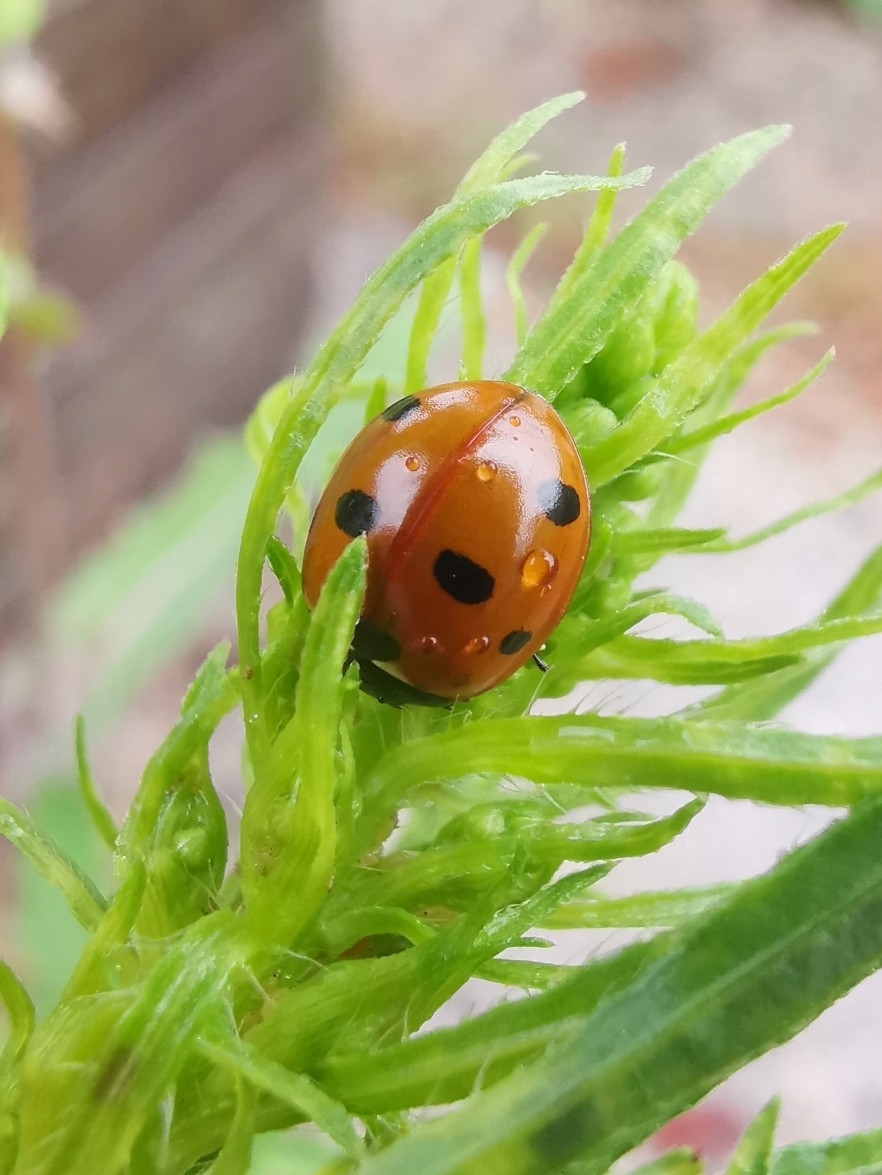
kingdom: Animalia
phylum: Arthropoda
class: Insecta
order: Coleoptera
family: Coccinellidae
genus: Coccinella
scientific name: Coccinella septempunctata
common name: Sevenspotted lady beetle
